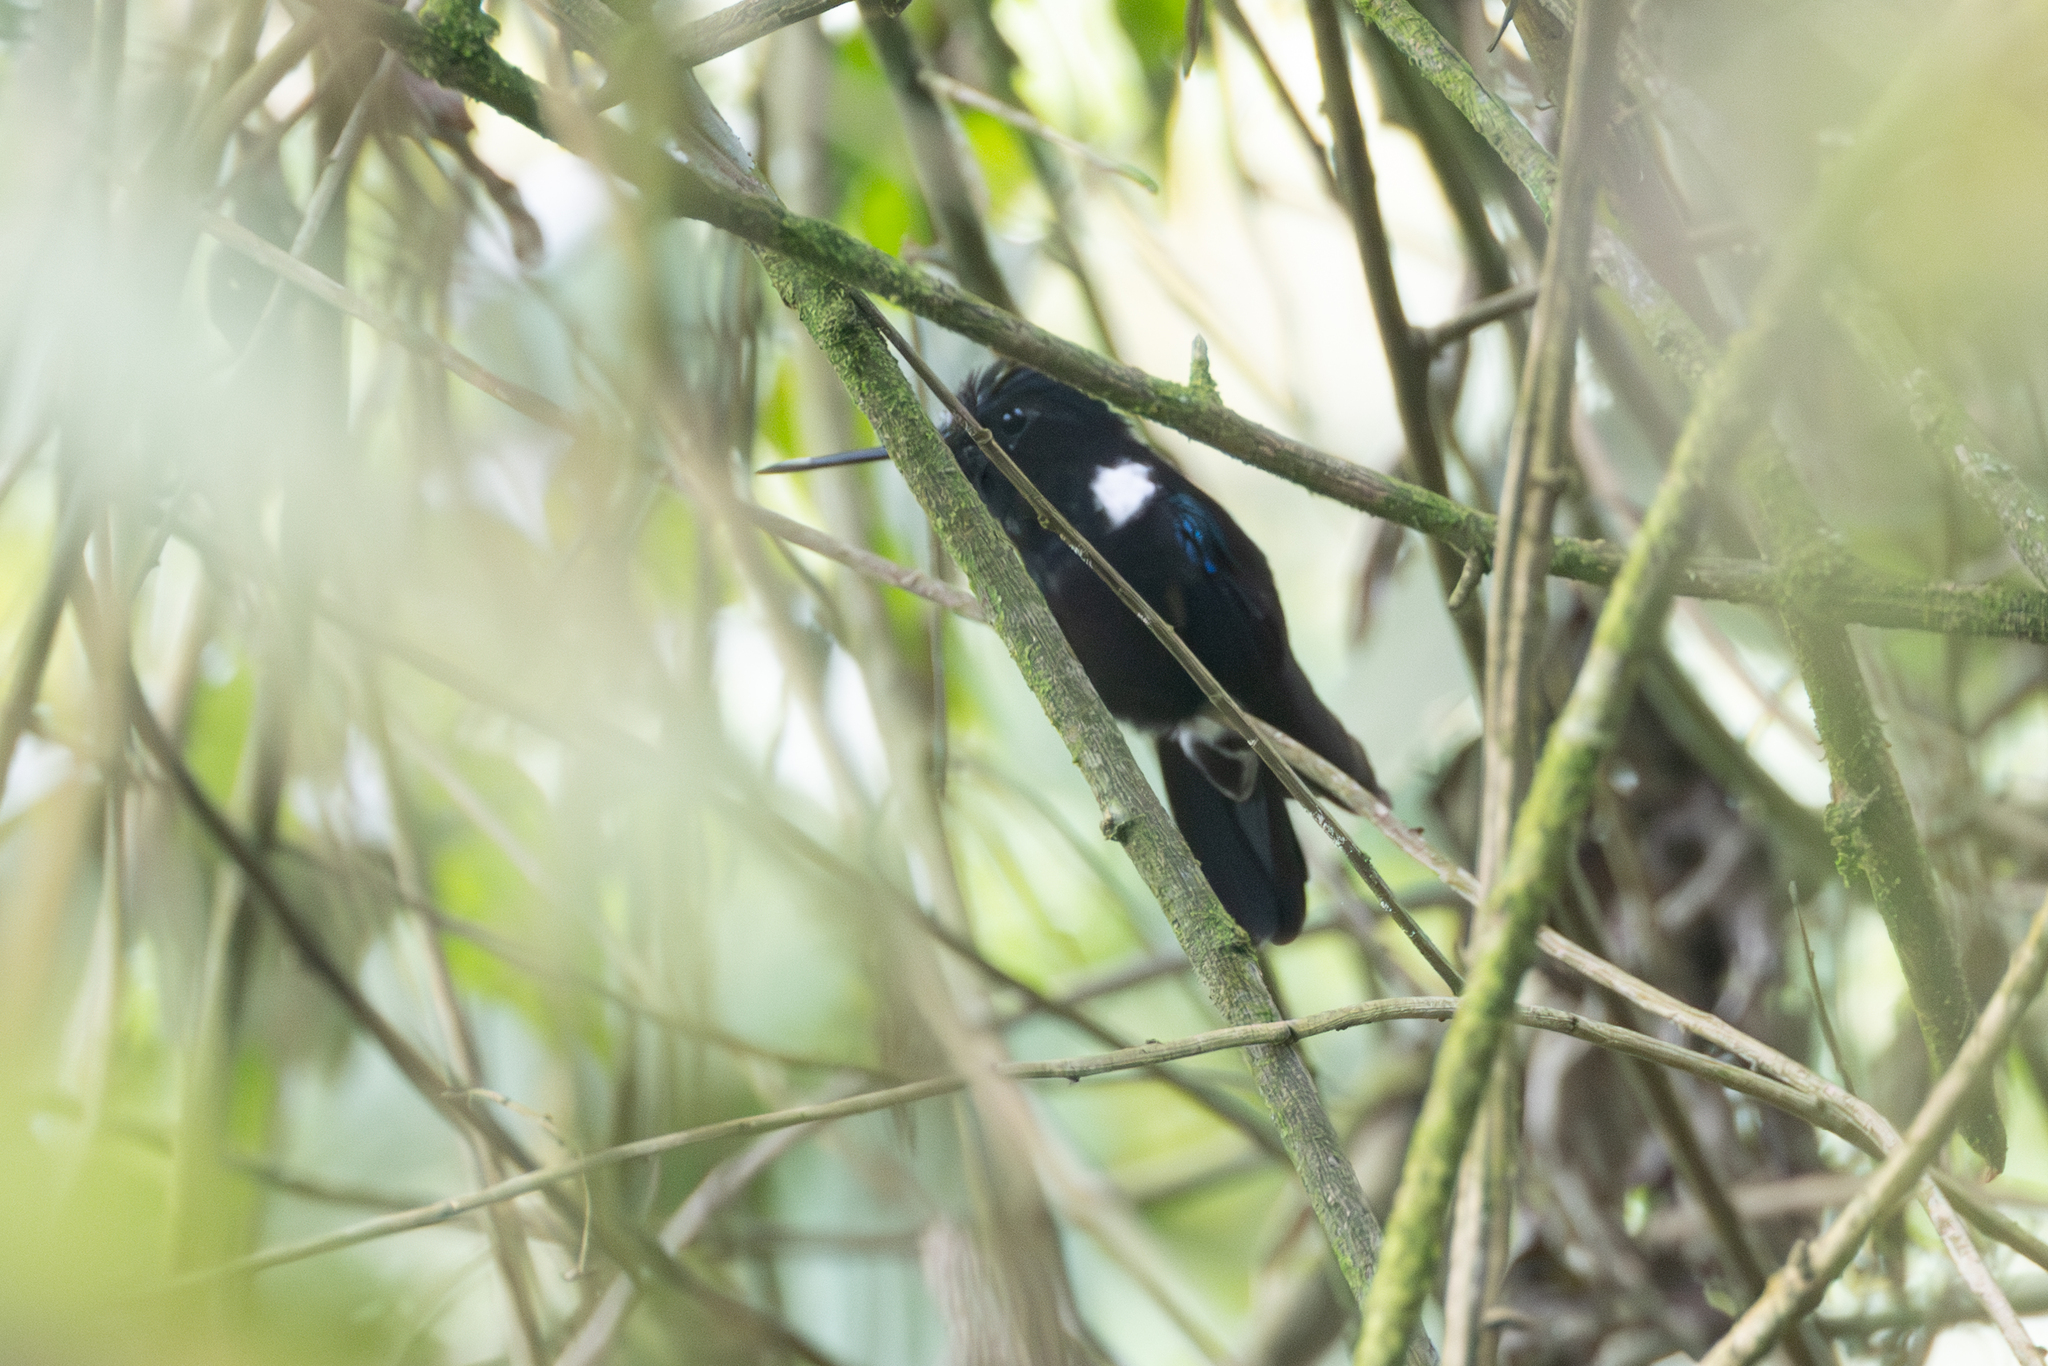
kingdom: Animalia
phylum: Chordata
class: Aves
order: Apodiformes
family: Trochilidae
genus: Coeligena
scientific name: Coeligena prunellei
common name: Black inca
